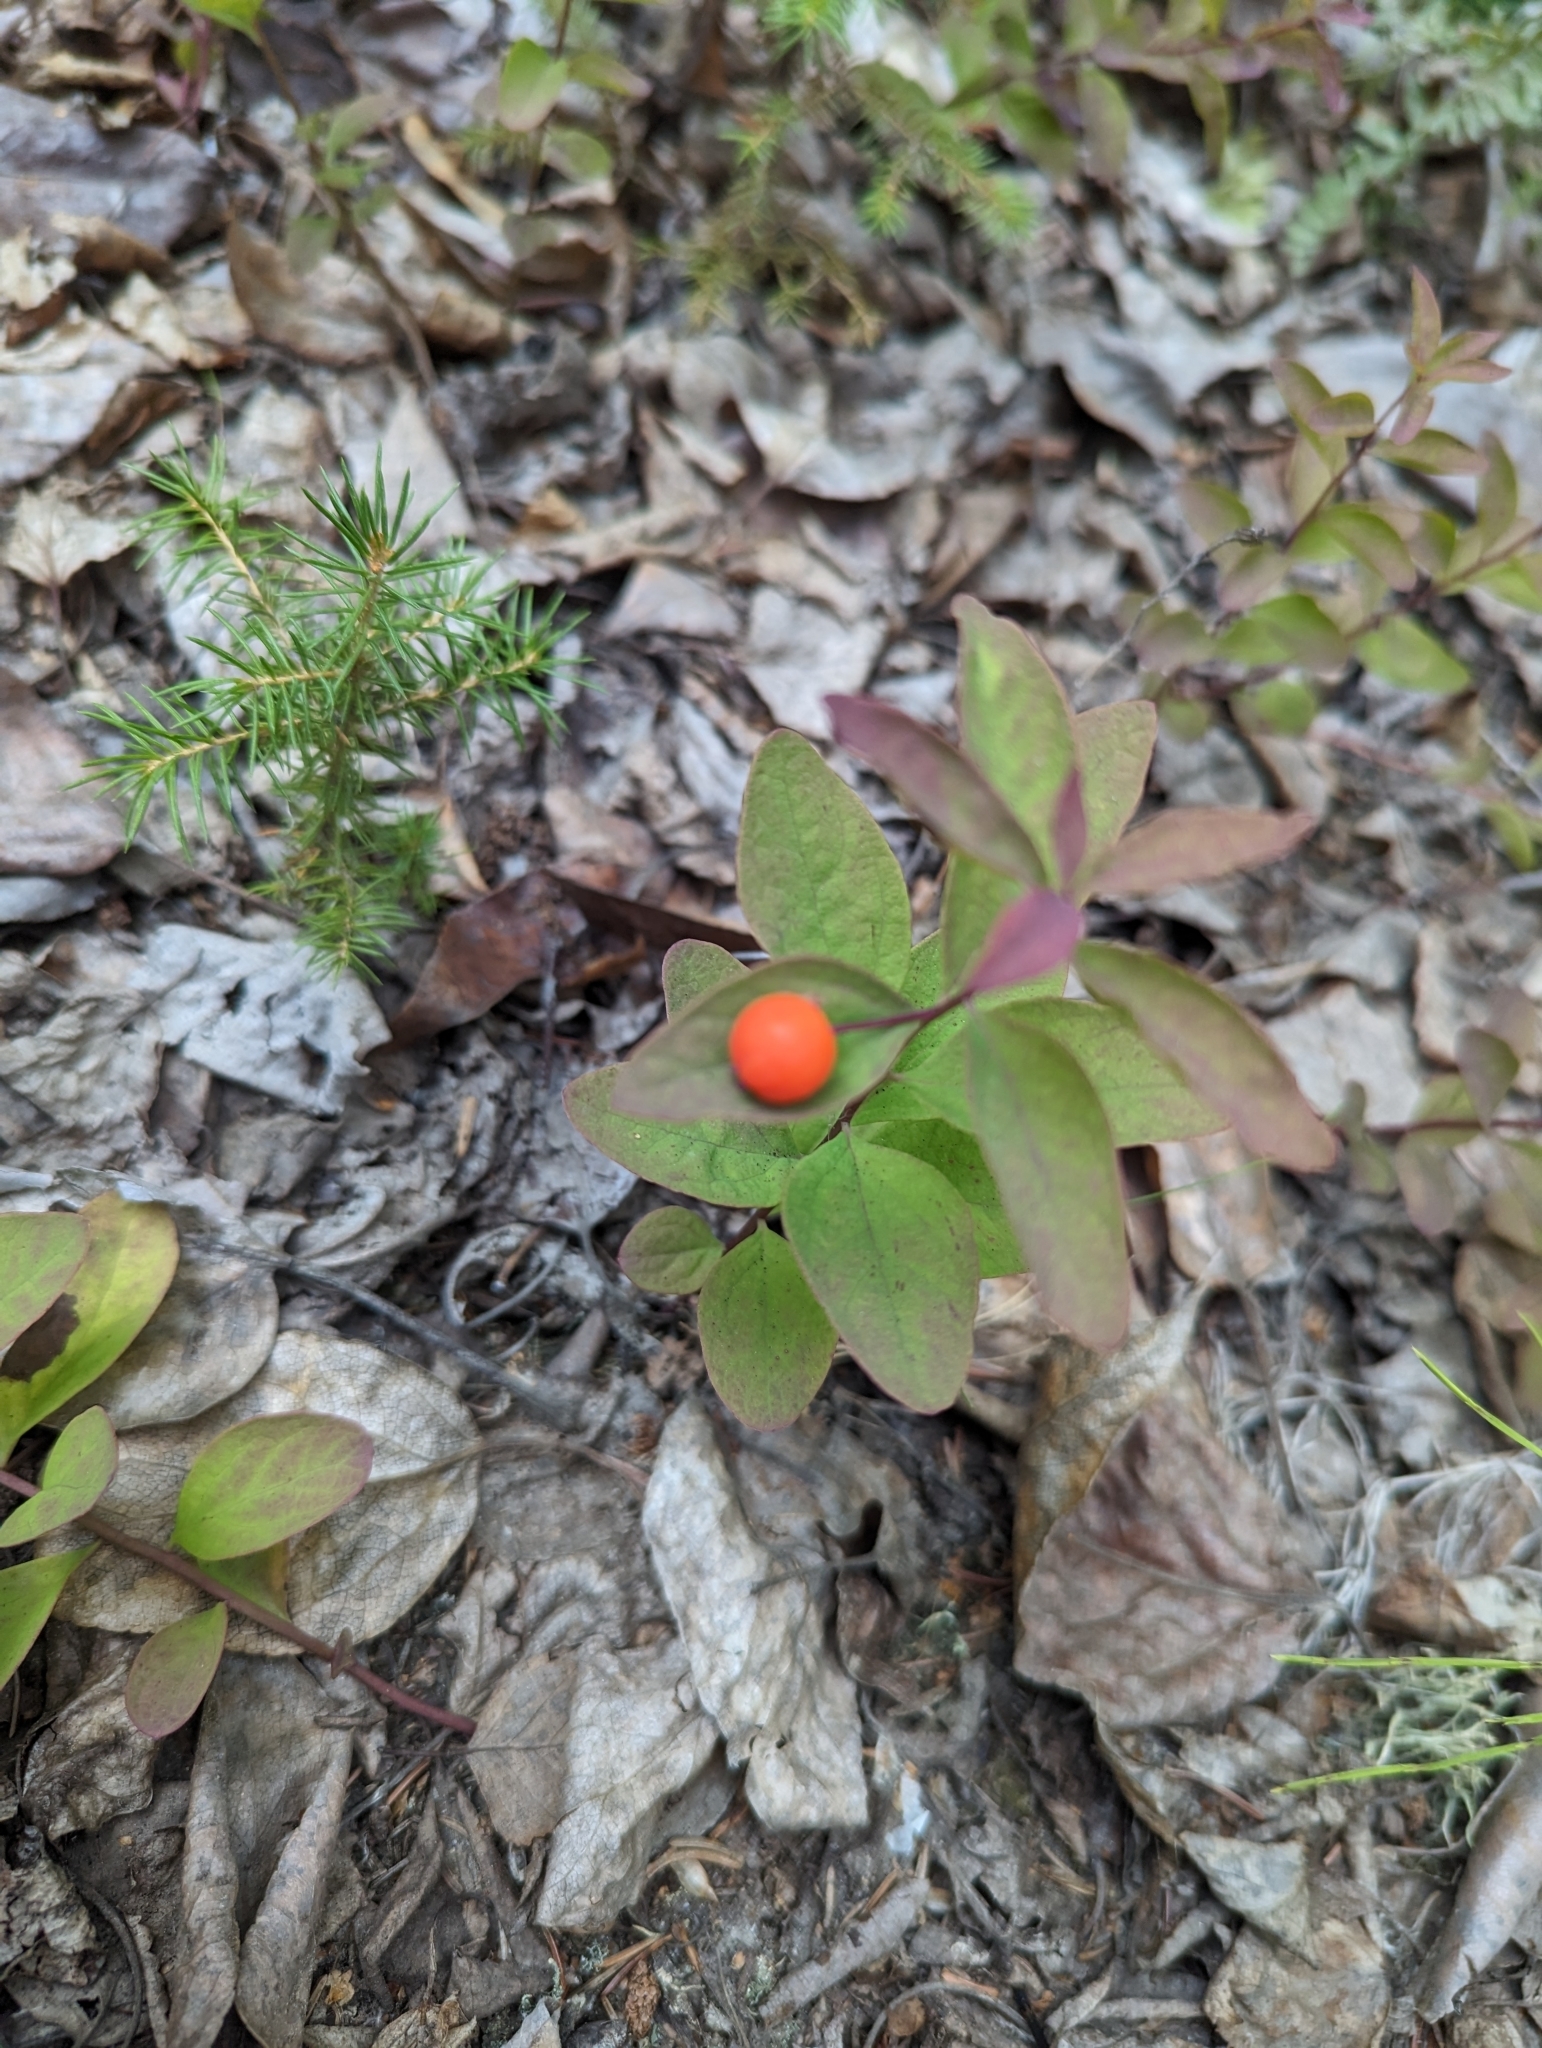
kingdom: Plantae
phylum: Tracheophyta
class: Magnoliopsida
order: Santalales
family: Comandraceae
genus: Geocaulon
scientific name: Geocaulon lividum
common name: Earthberry
